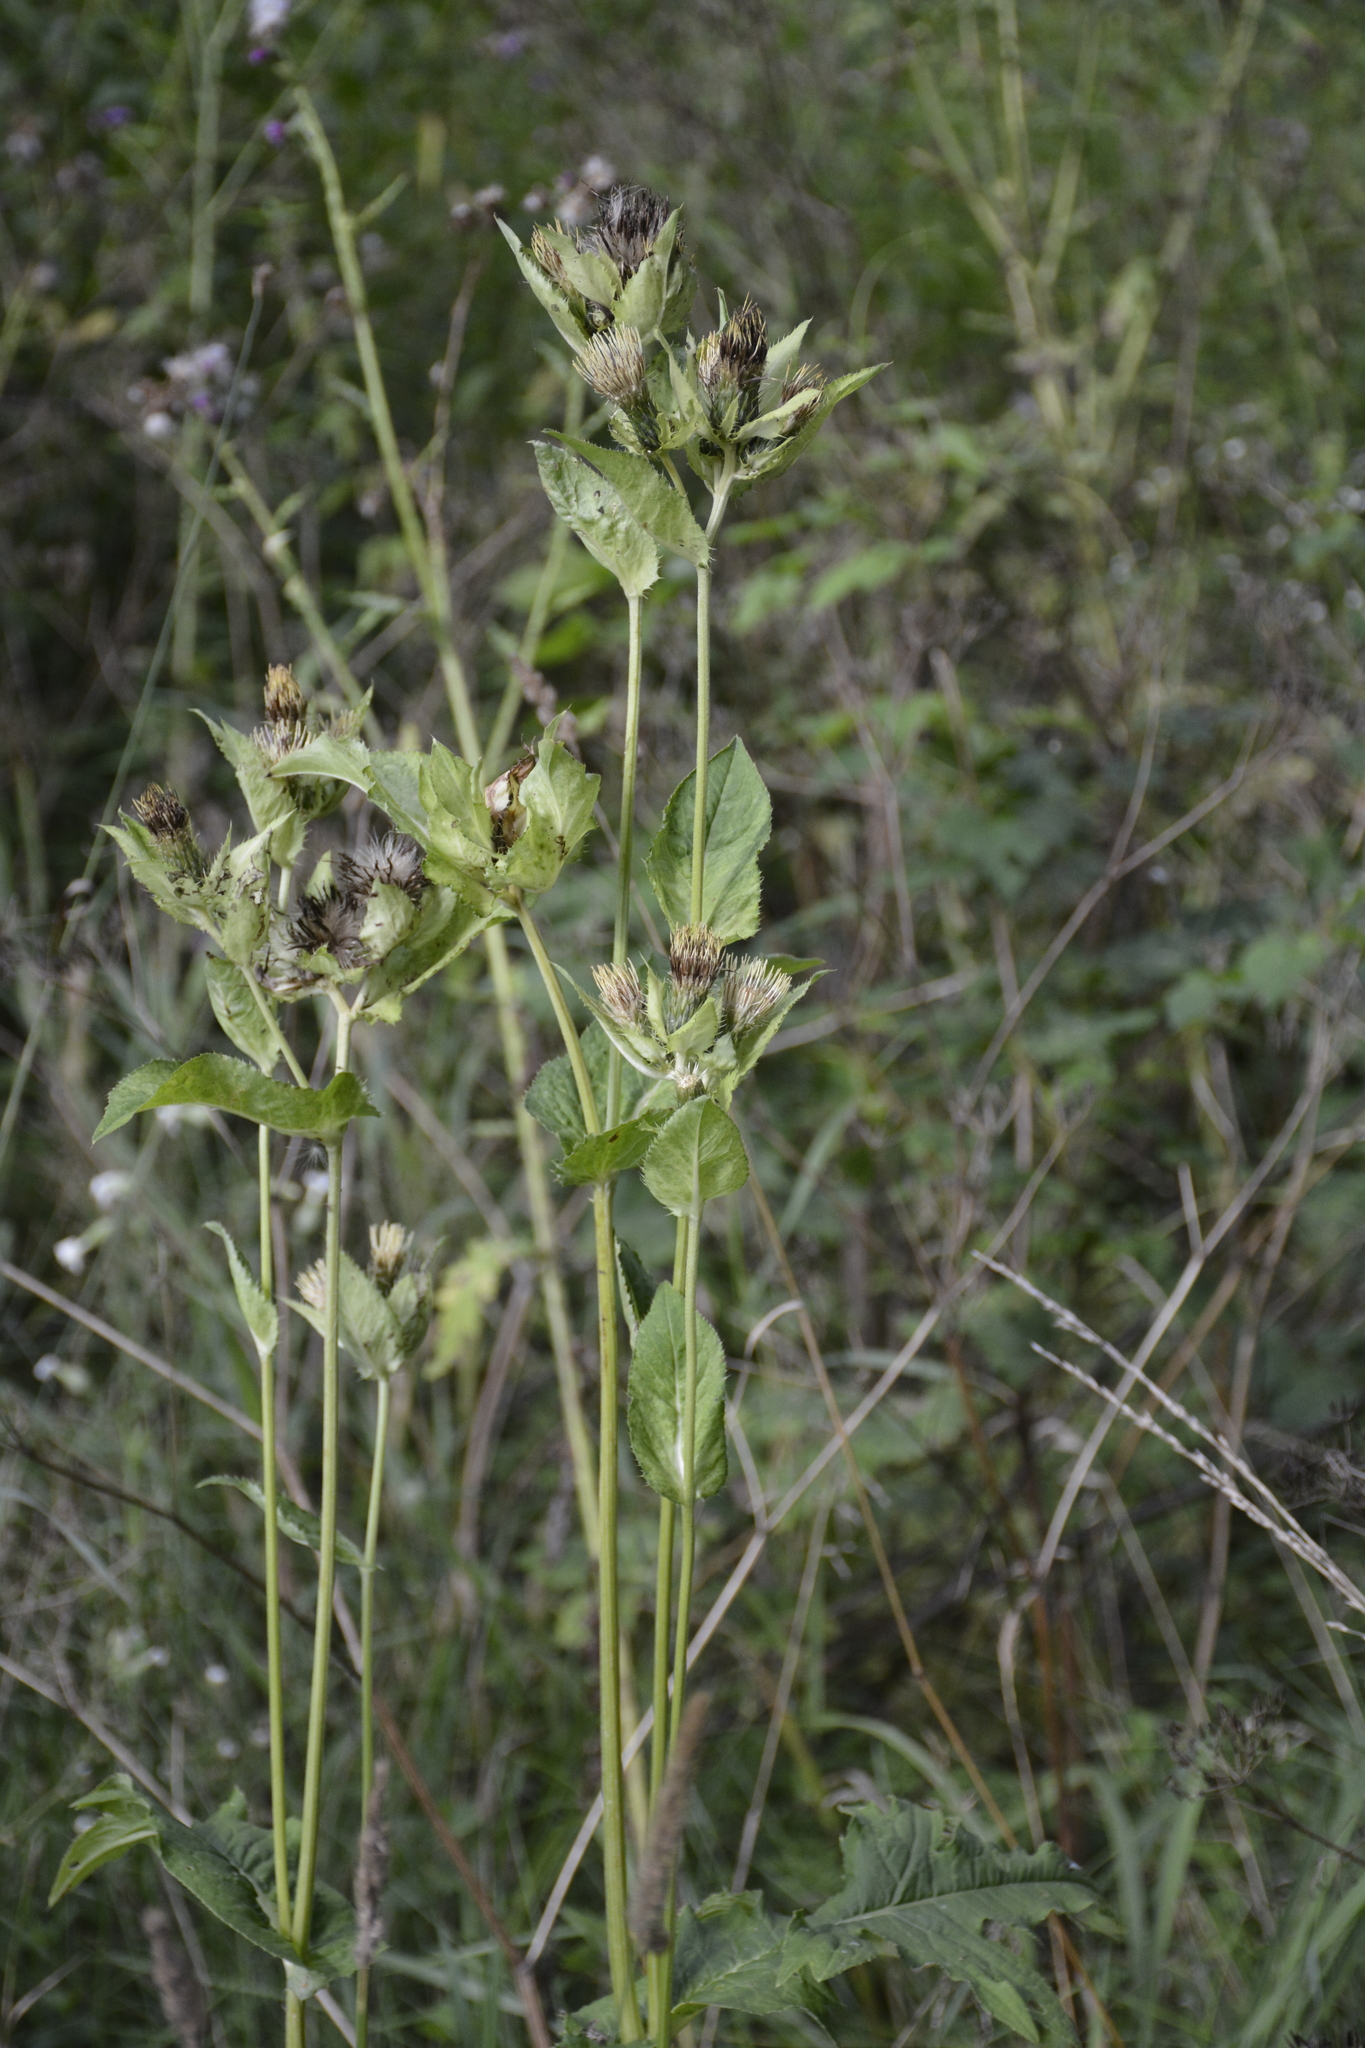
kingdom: Plantae
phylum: Tracheophyta
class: Magnoliopsida
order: Asterales
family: Asteraceae
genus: Cirsium
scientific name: Cirsium oleraceum
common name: Cabbage thistle
